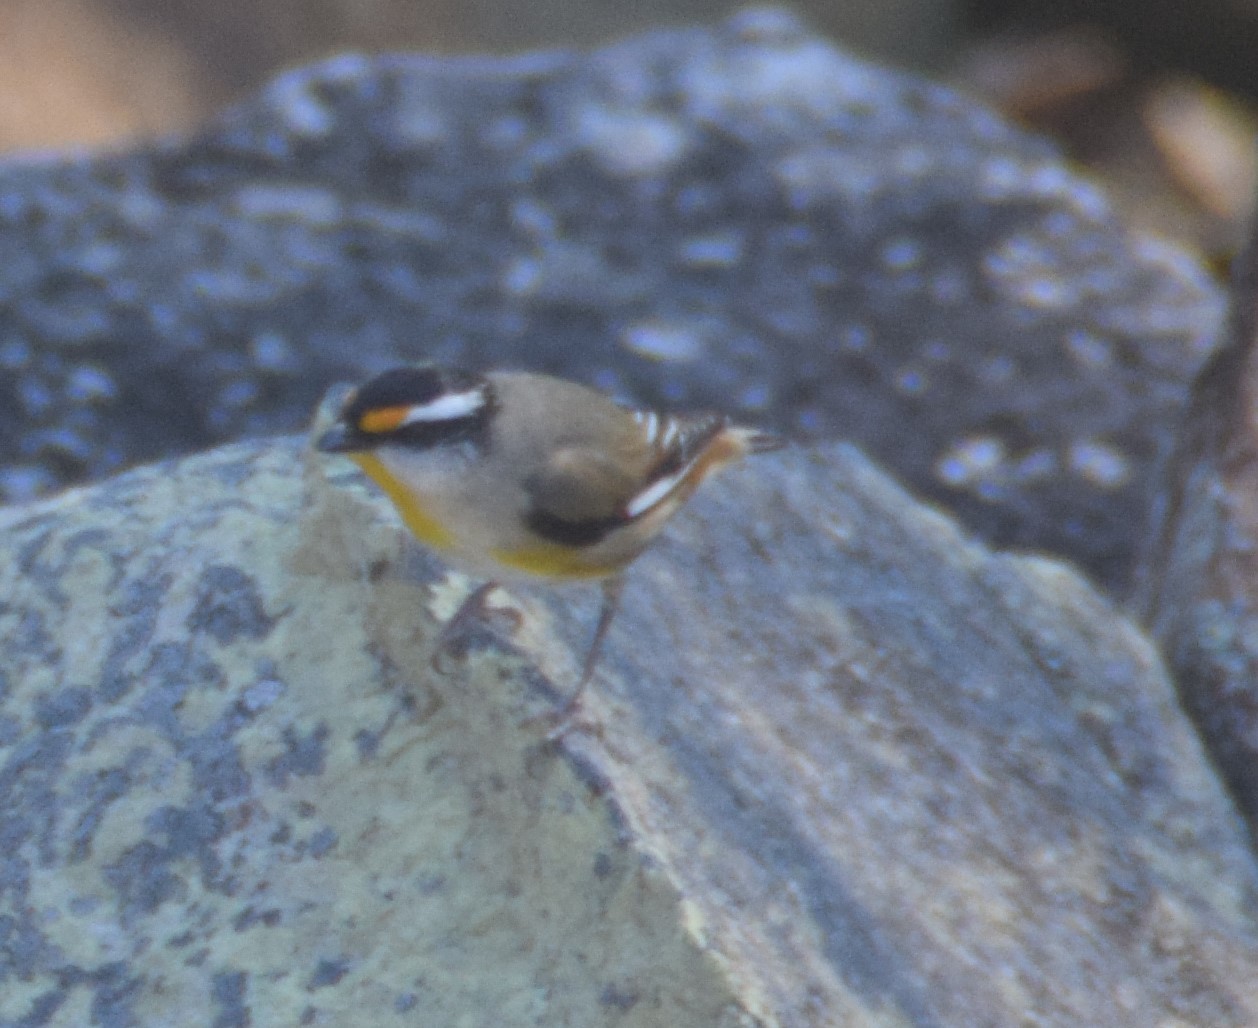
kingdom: Animalia
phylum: Chordata
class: Aves
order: Passeriformes
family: Pardalotidae
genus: Pardalotus
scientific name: Pardalotus striatus
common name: Striated pardalote
